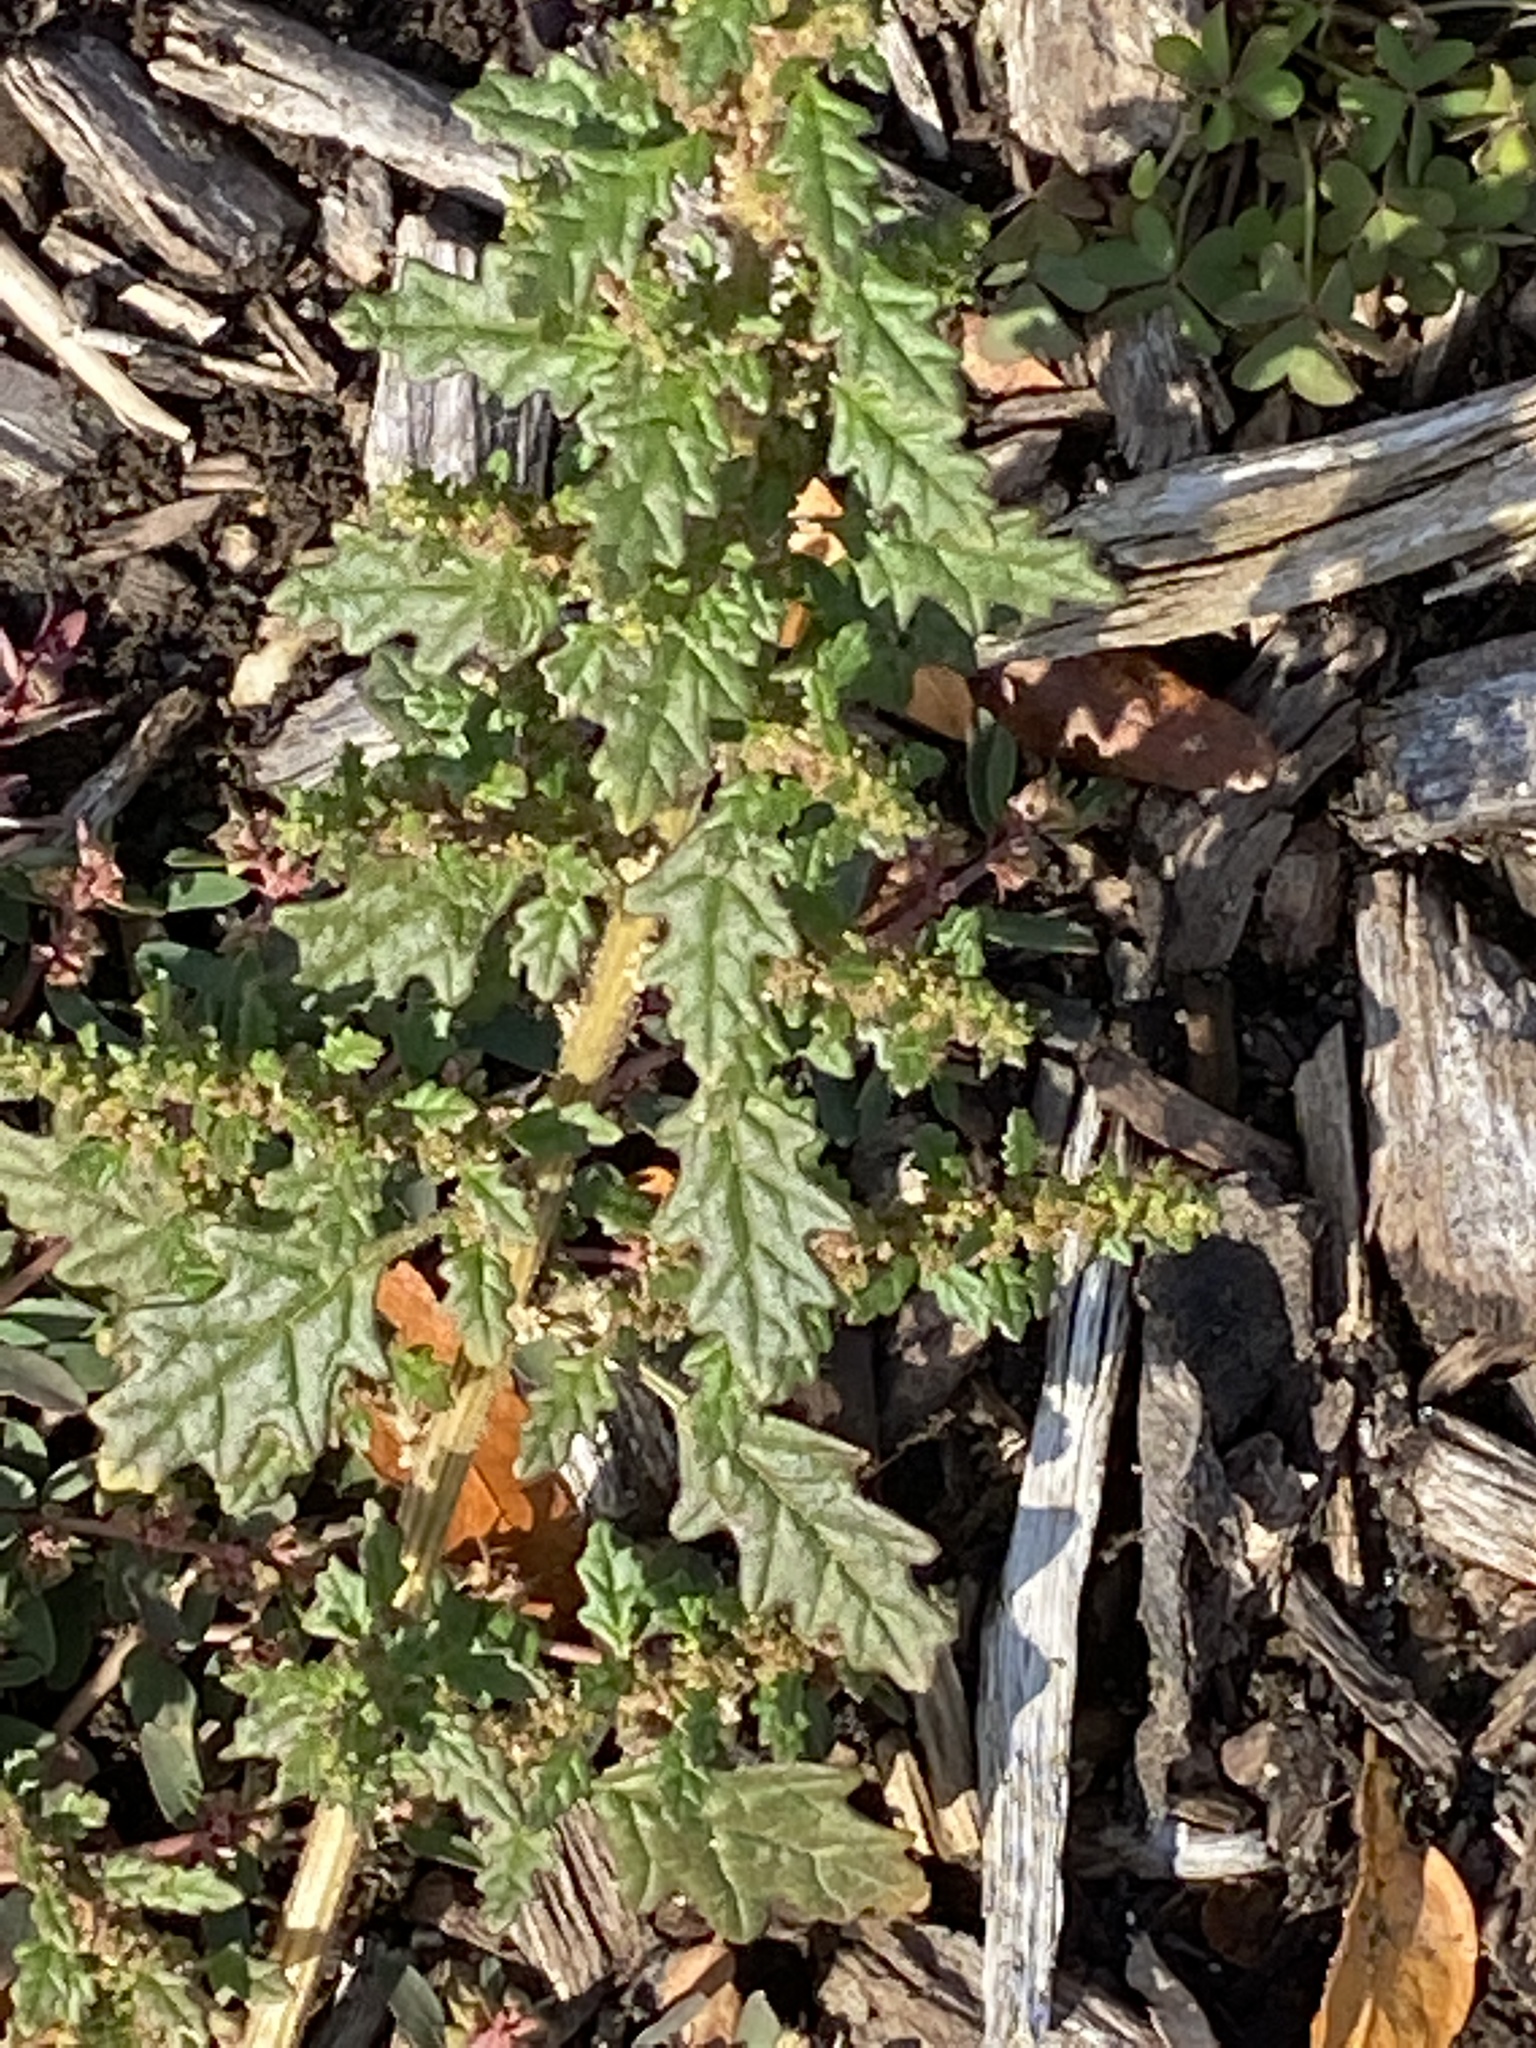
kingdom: Plantae
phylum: Tracheophyta
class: Magnoliopsida
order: Caryophyllales
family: Amaranthaceae
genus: Dysphania
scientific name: Dysphania pumilio
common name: Clammy goosefoot
